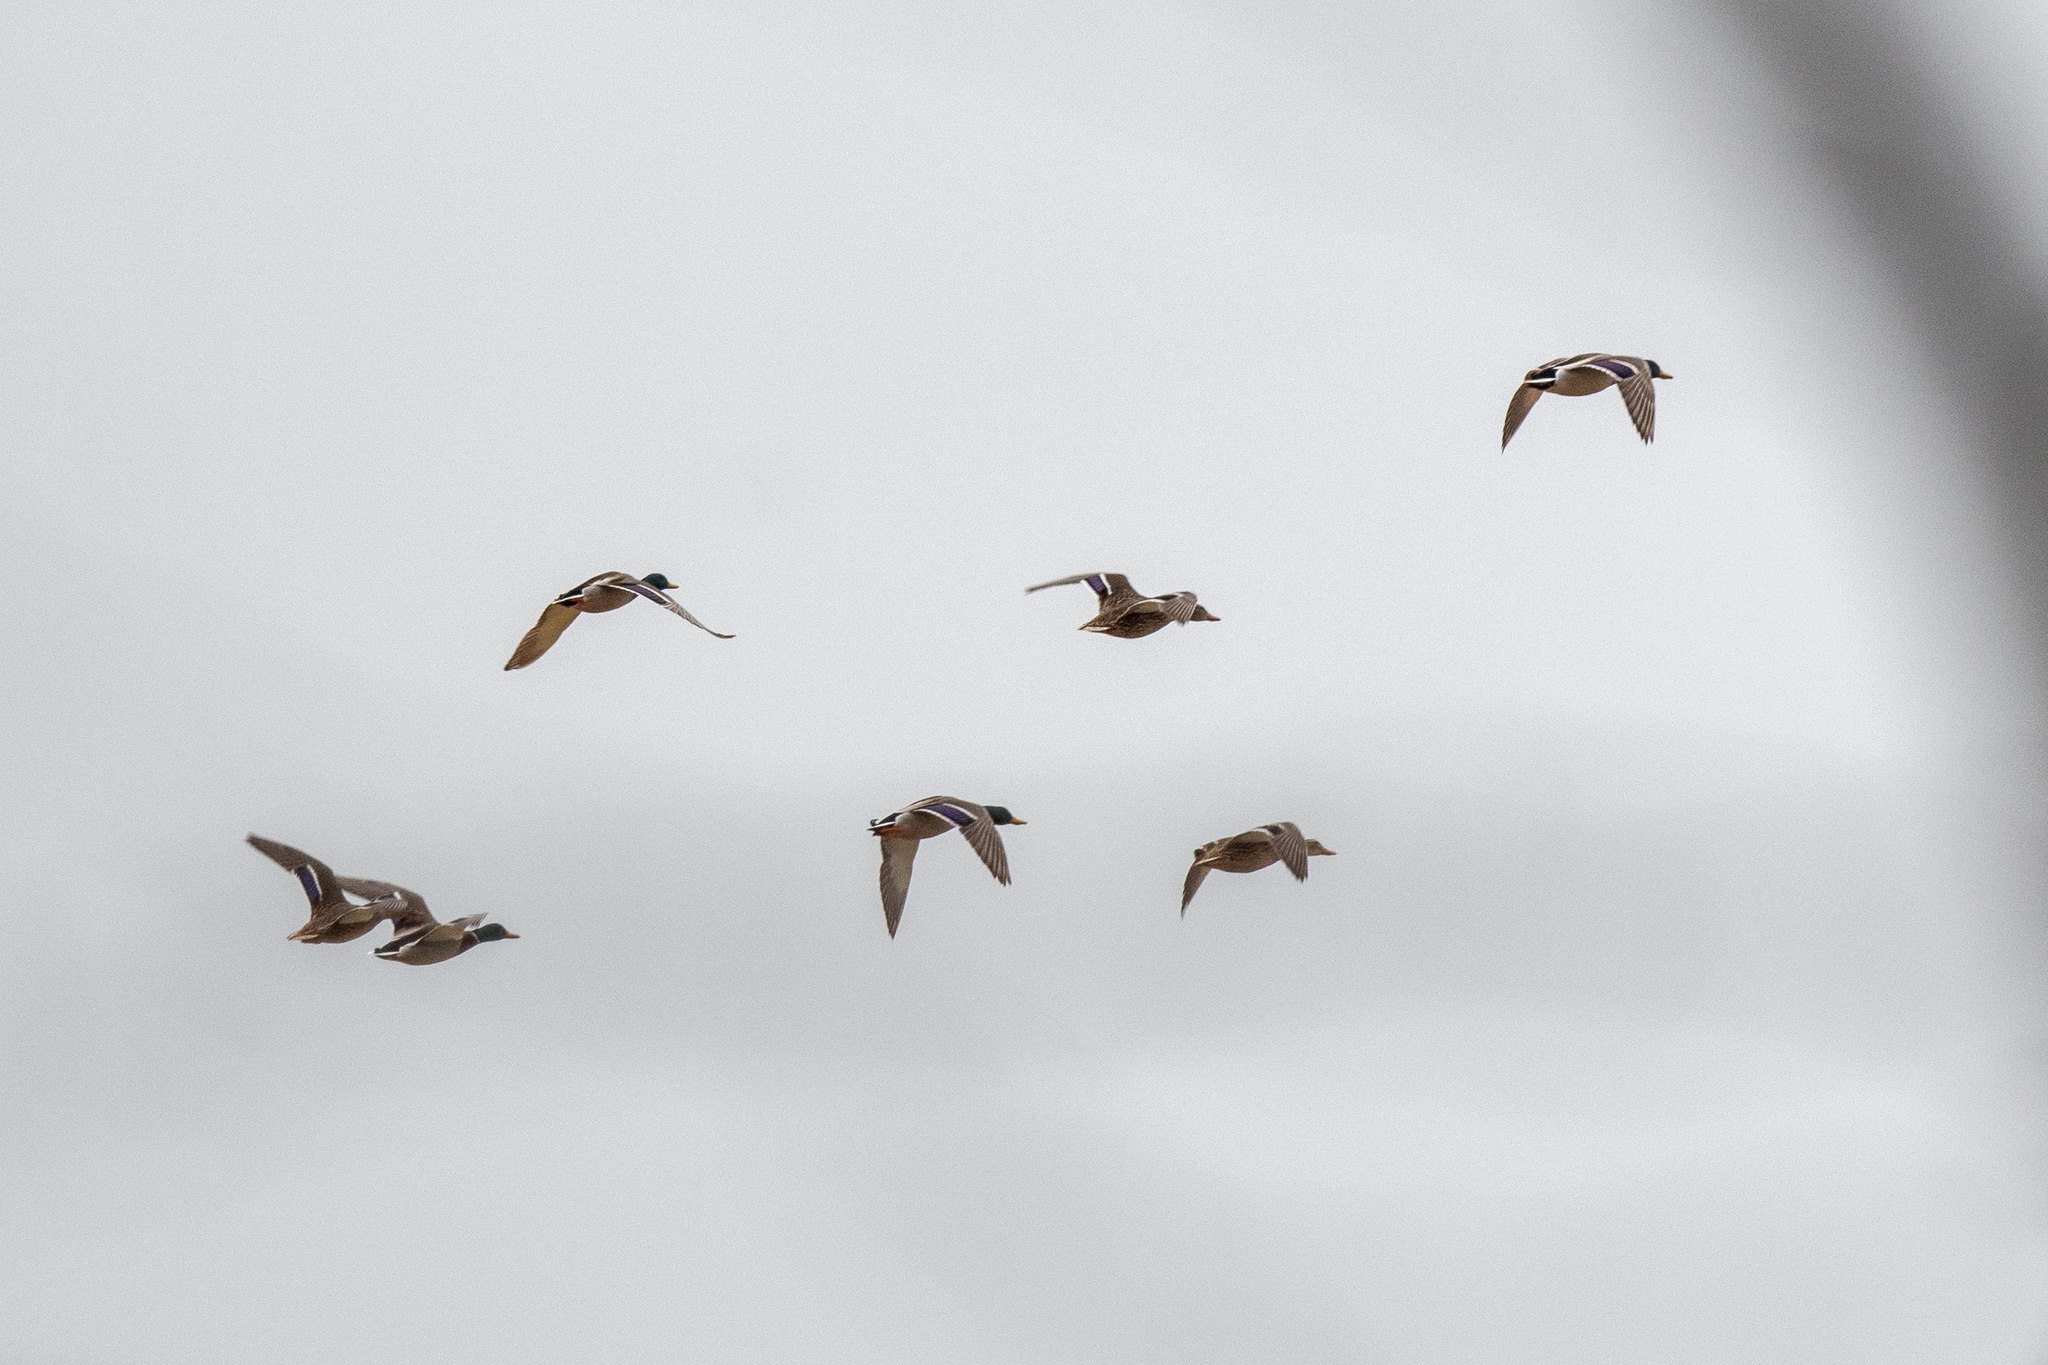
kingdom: Animalia
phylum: Chordata
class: Aves
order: Anseriformes
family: Anatidae
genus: Anas
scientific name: Anas platyrhynchos
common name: Mallard
